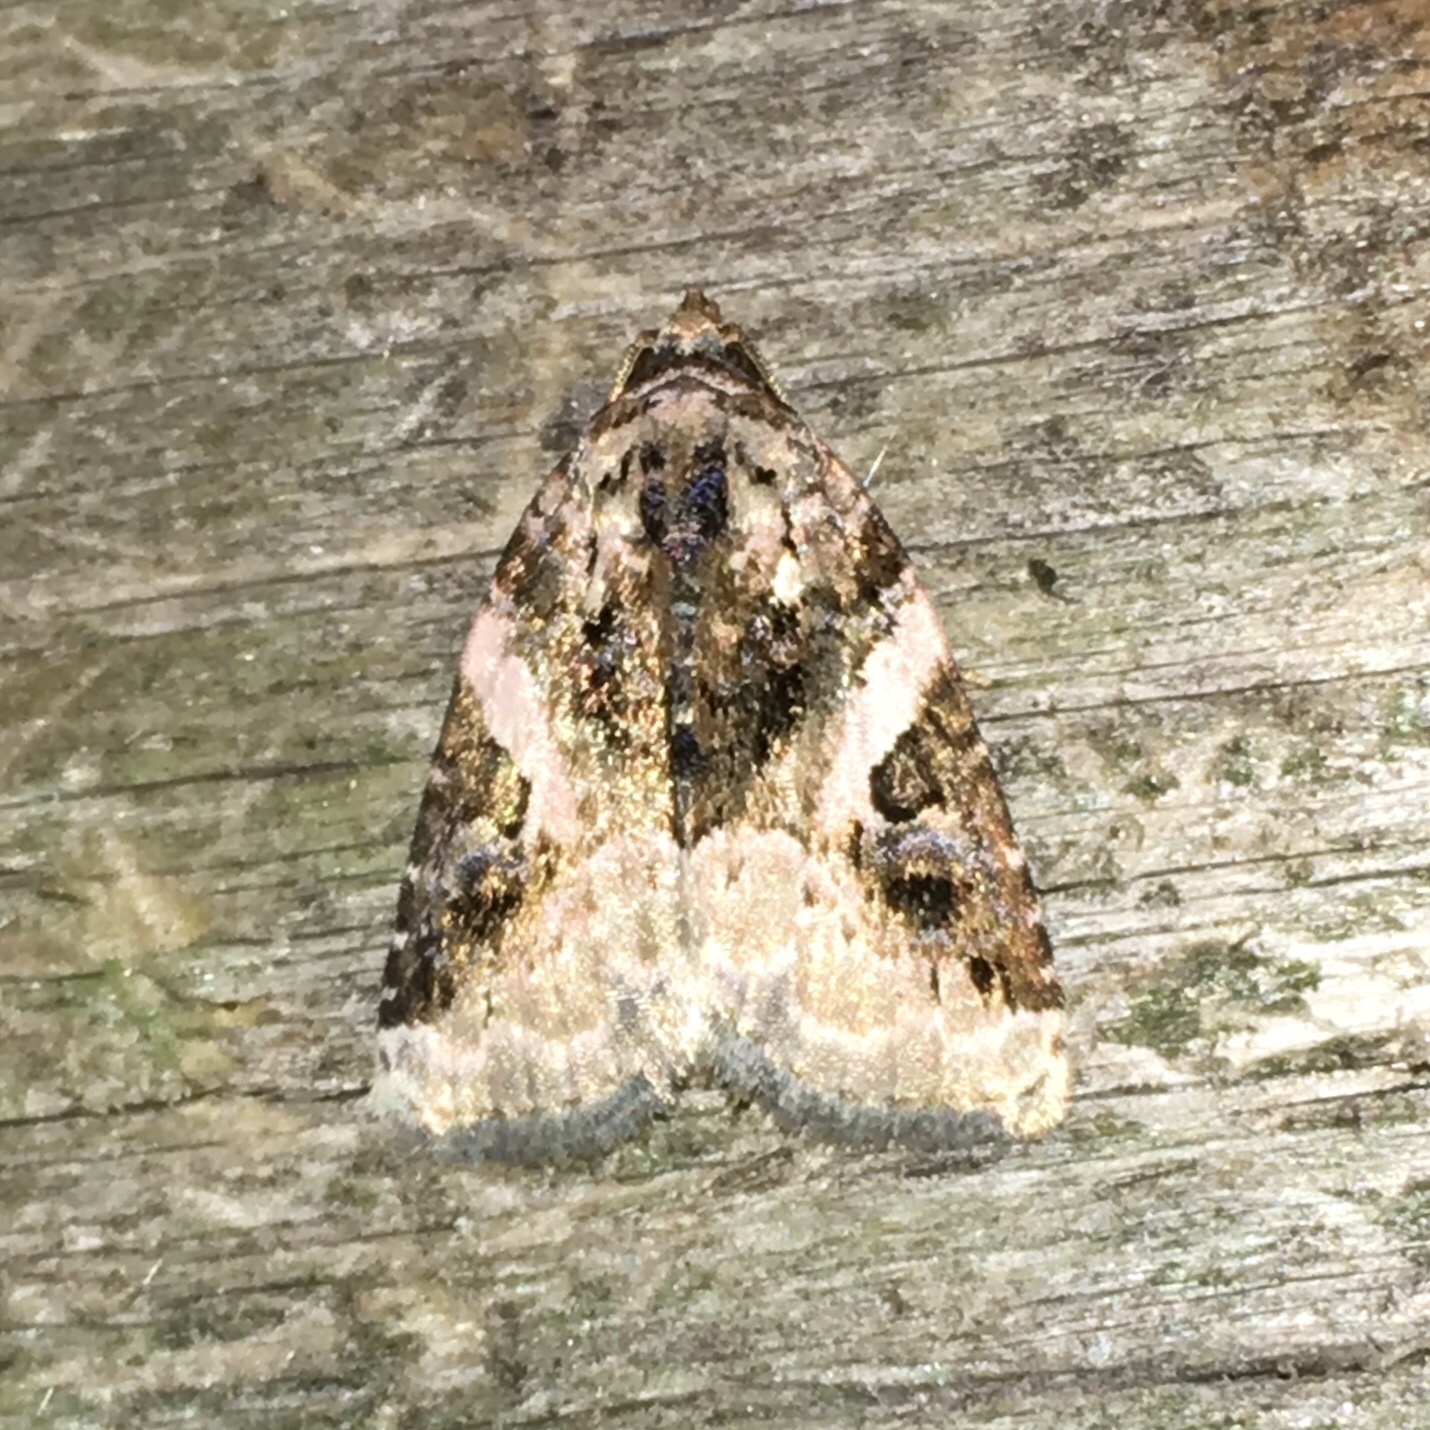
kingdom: Animalia
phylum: Arthropoda
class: Insecta
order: Lepidoptera
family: Noctuidae
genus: Pseudeustrotia
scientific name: Pseudeustrotia carneola
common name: Pink-barred lithacodia moth
